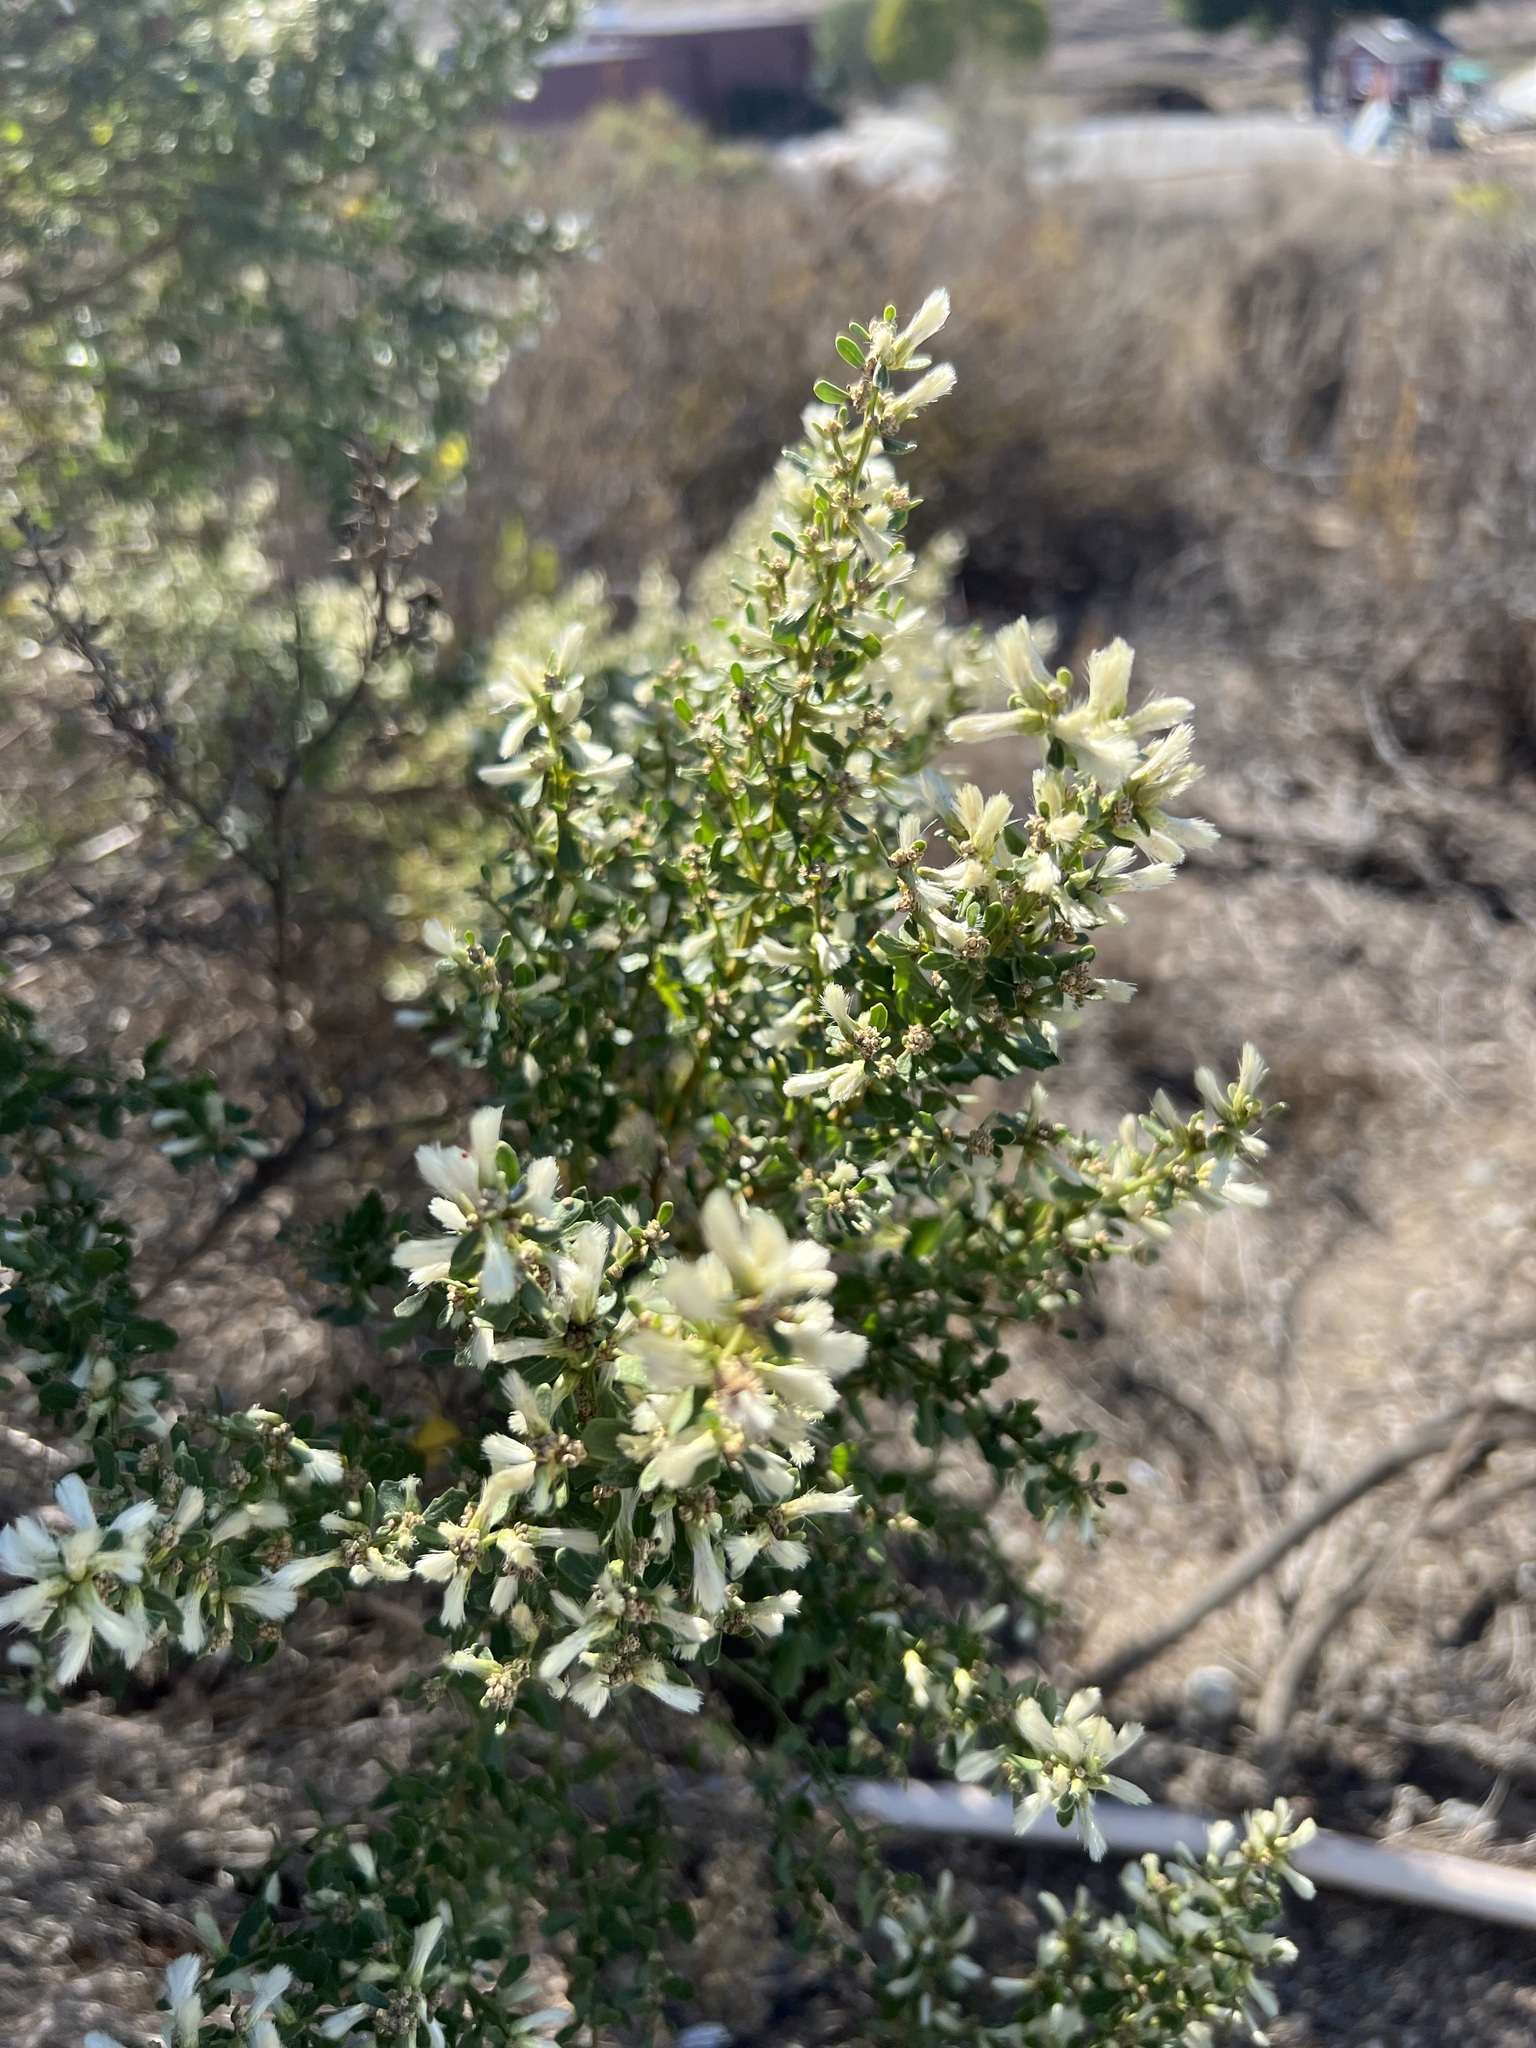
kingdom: Plantae
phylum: Tracheophyta
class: Magnoliopsida
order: Asterales
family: Asteraceae
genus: Baccharis
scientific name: Baccharis pilularis
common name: Coyotebrush
